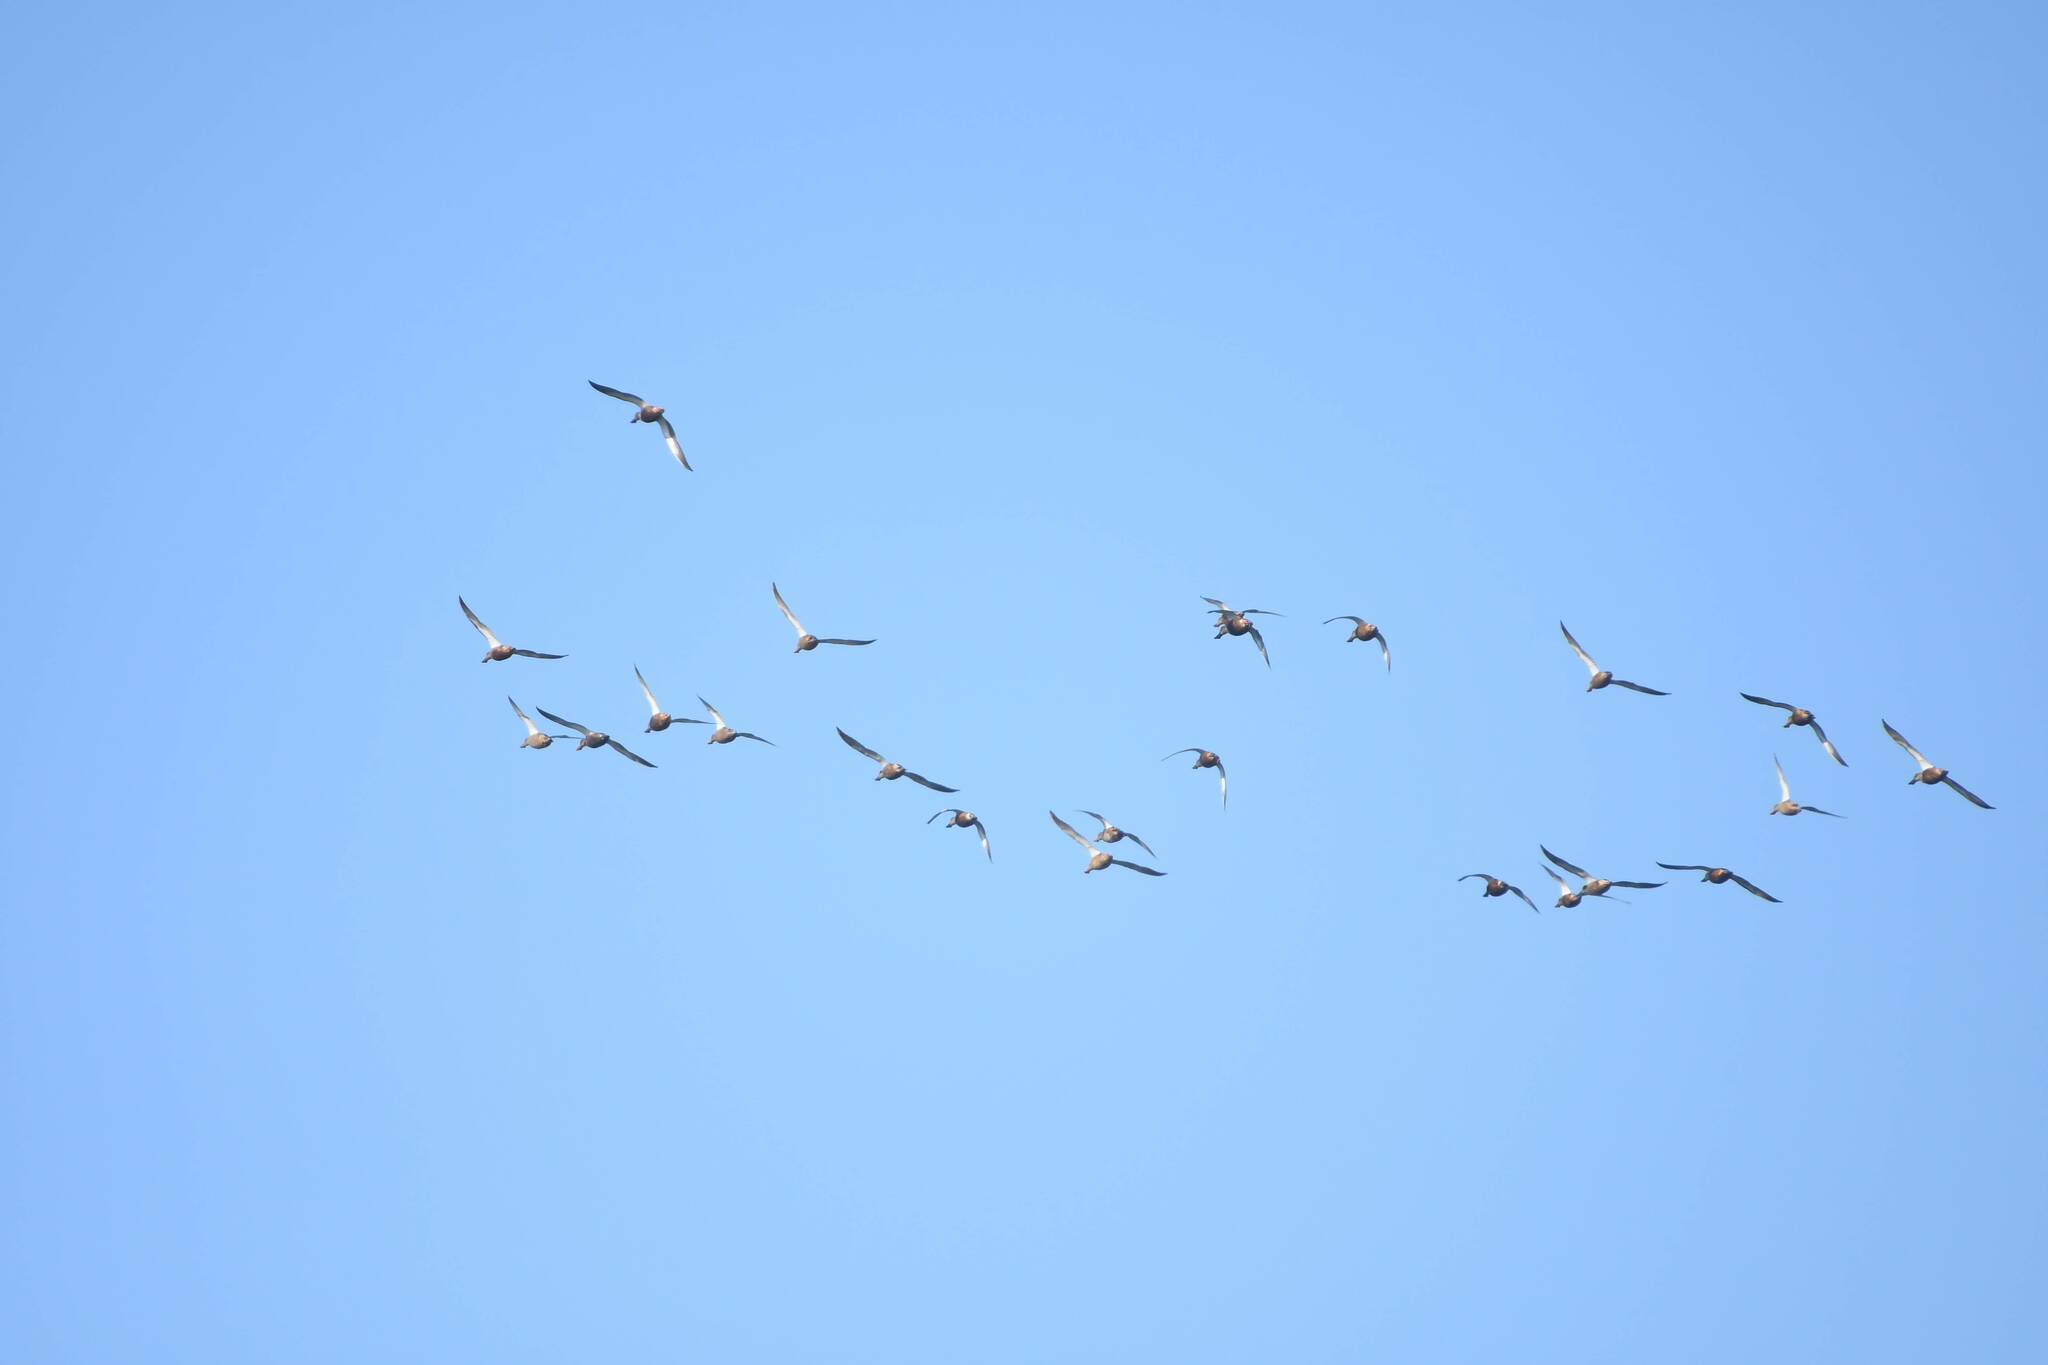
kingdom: Animalia
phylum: Chordata
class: Aves
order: Anseriformes
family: Anatidae
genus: Spatula
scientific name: Spatula clypeata
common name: Northern shoveler
